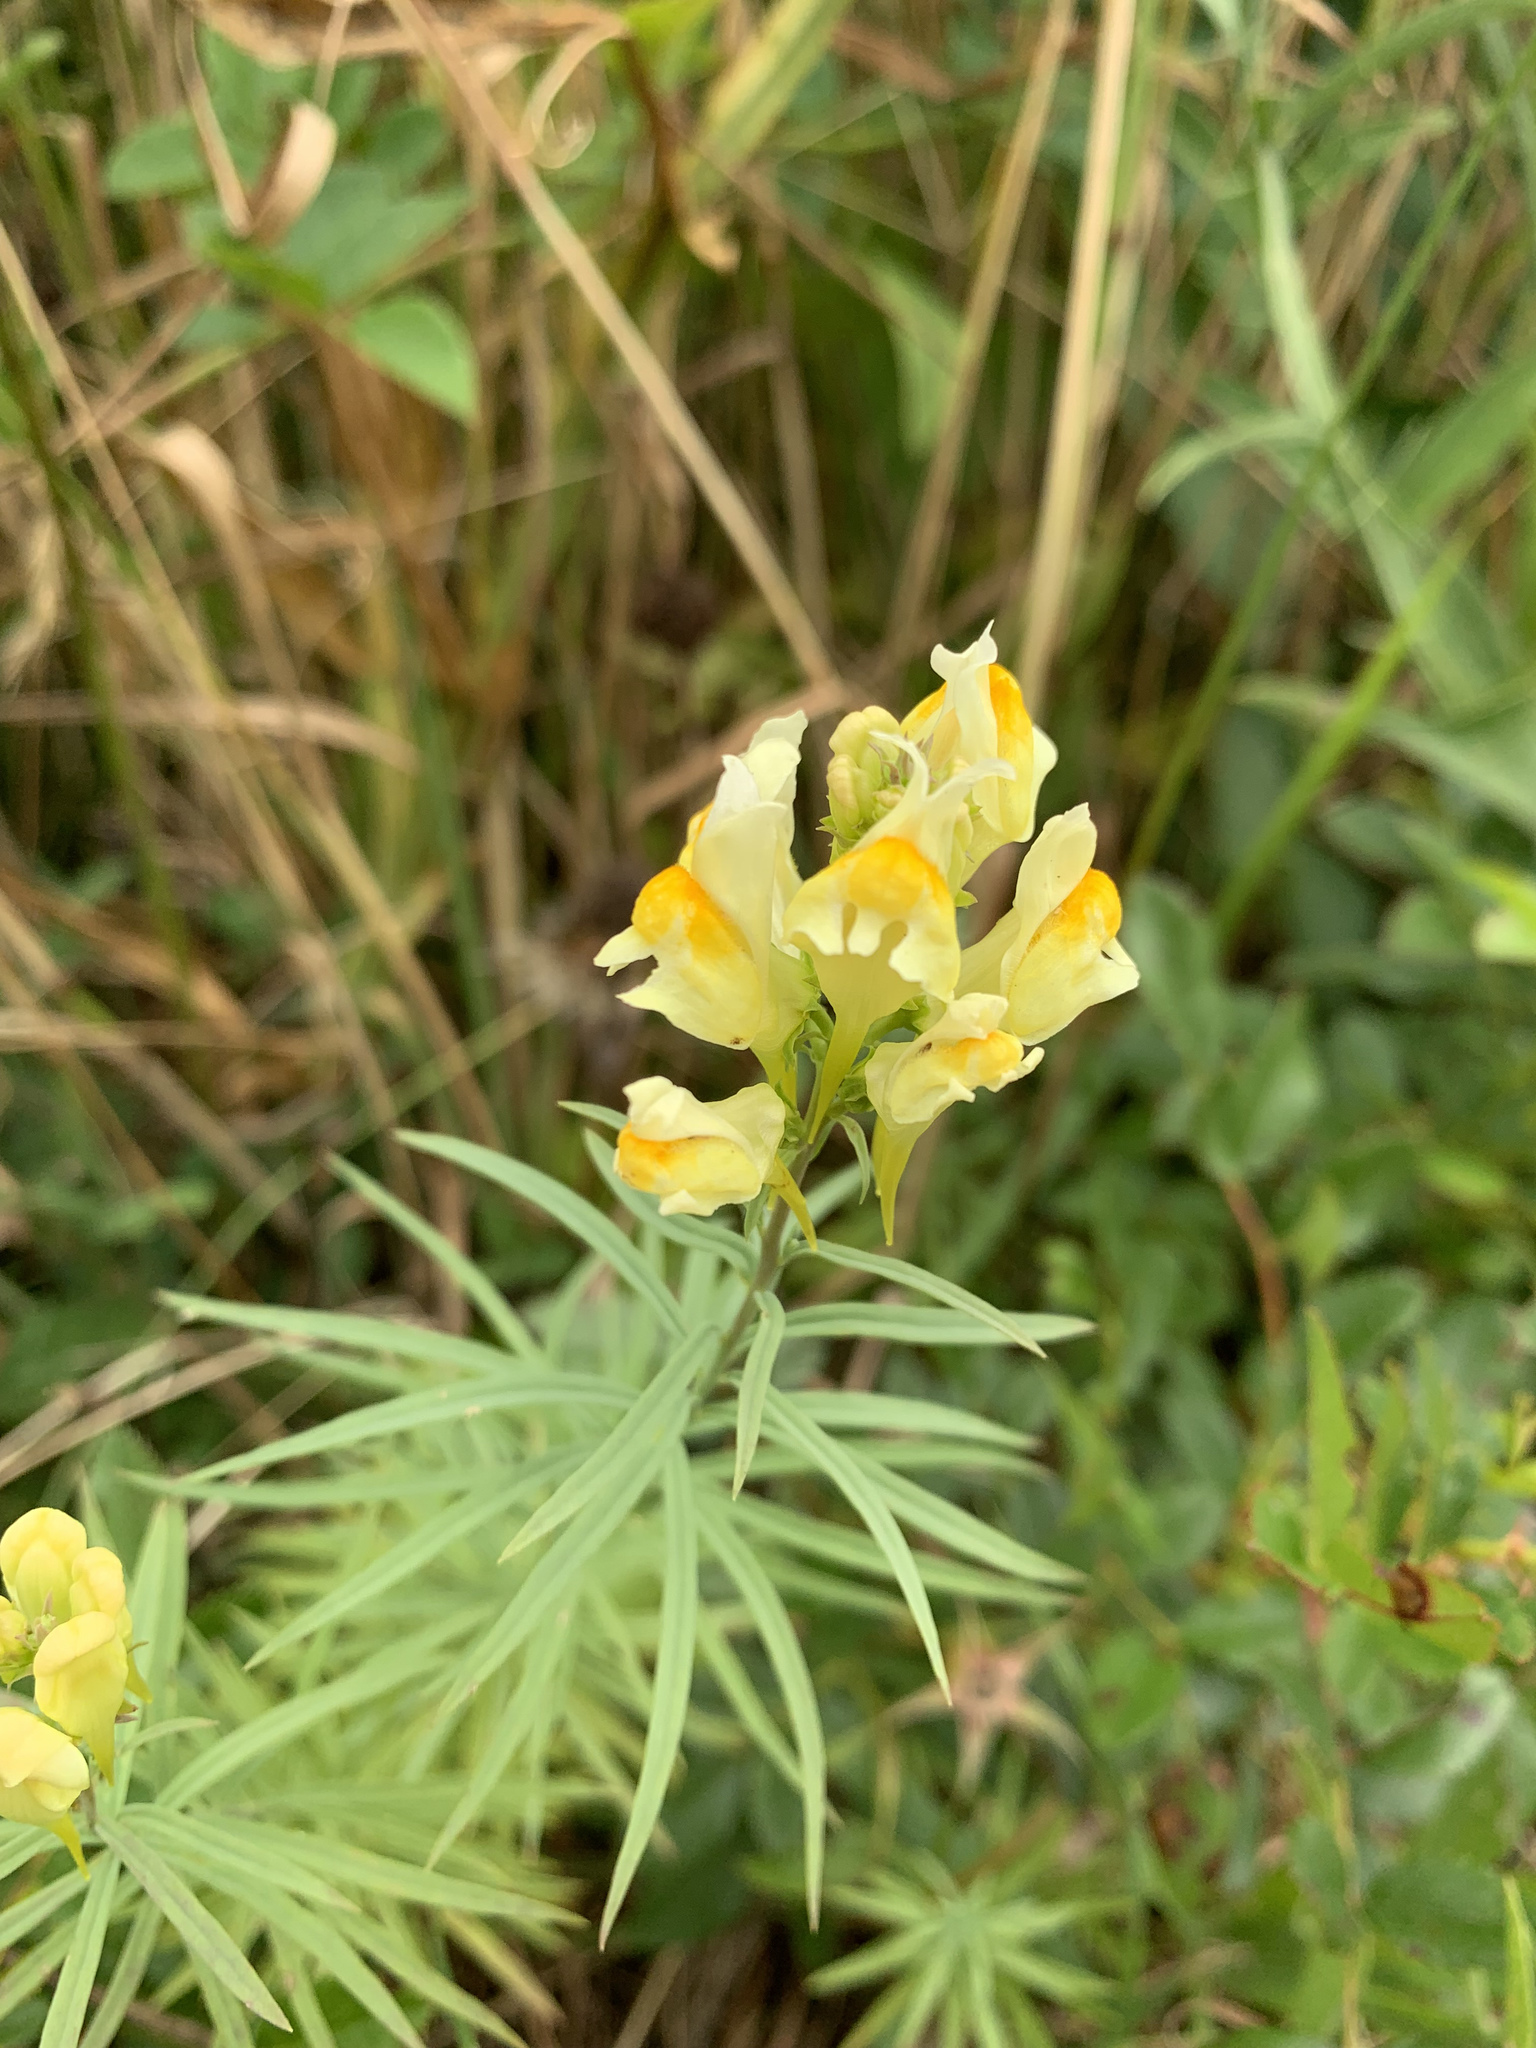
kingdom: Plantae
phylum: Tracheophyta
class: Magnoliopsida
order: Lamiales
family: Plantaginaceae
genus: Linaria
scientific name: Linaria vulgaris
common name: Butter and eggs
